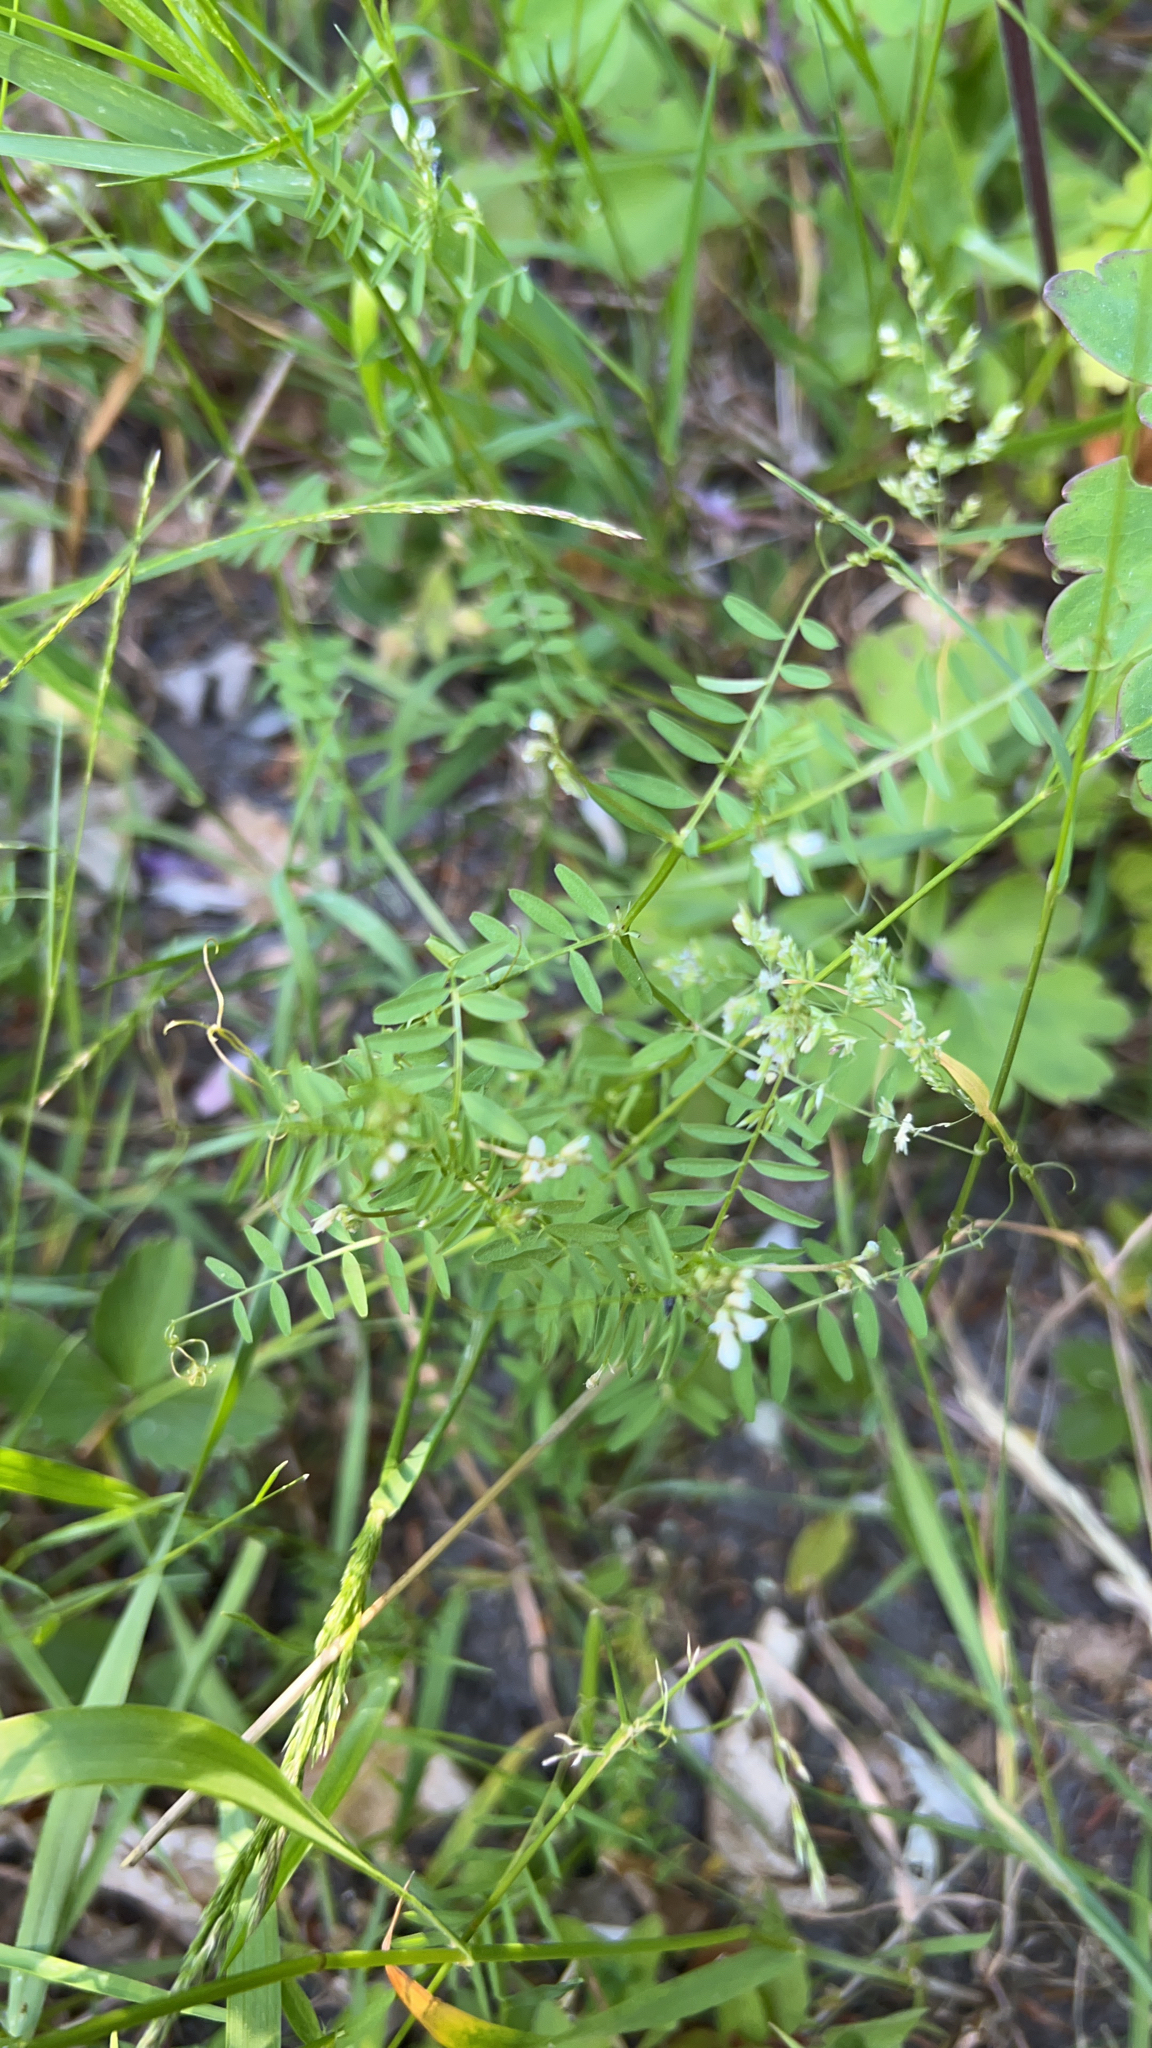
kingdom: Plantae
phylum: Tracheophyta
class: Magnoliopsida
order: Fabales
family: Fabaceae
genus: Vicia
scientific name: Vicia hirsuta
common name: Tiny vetch
